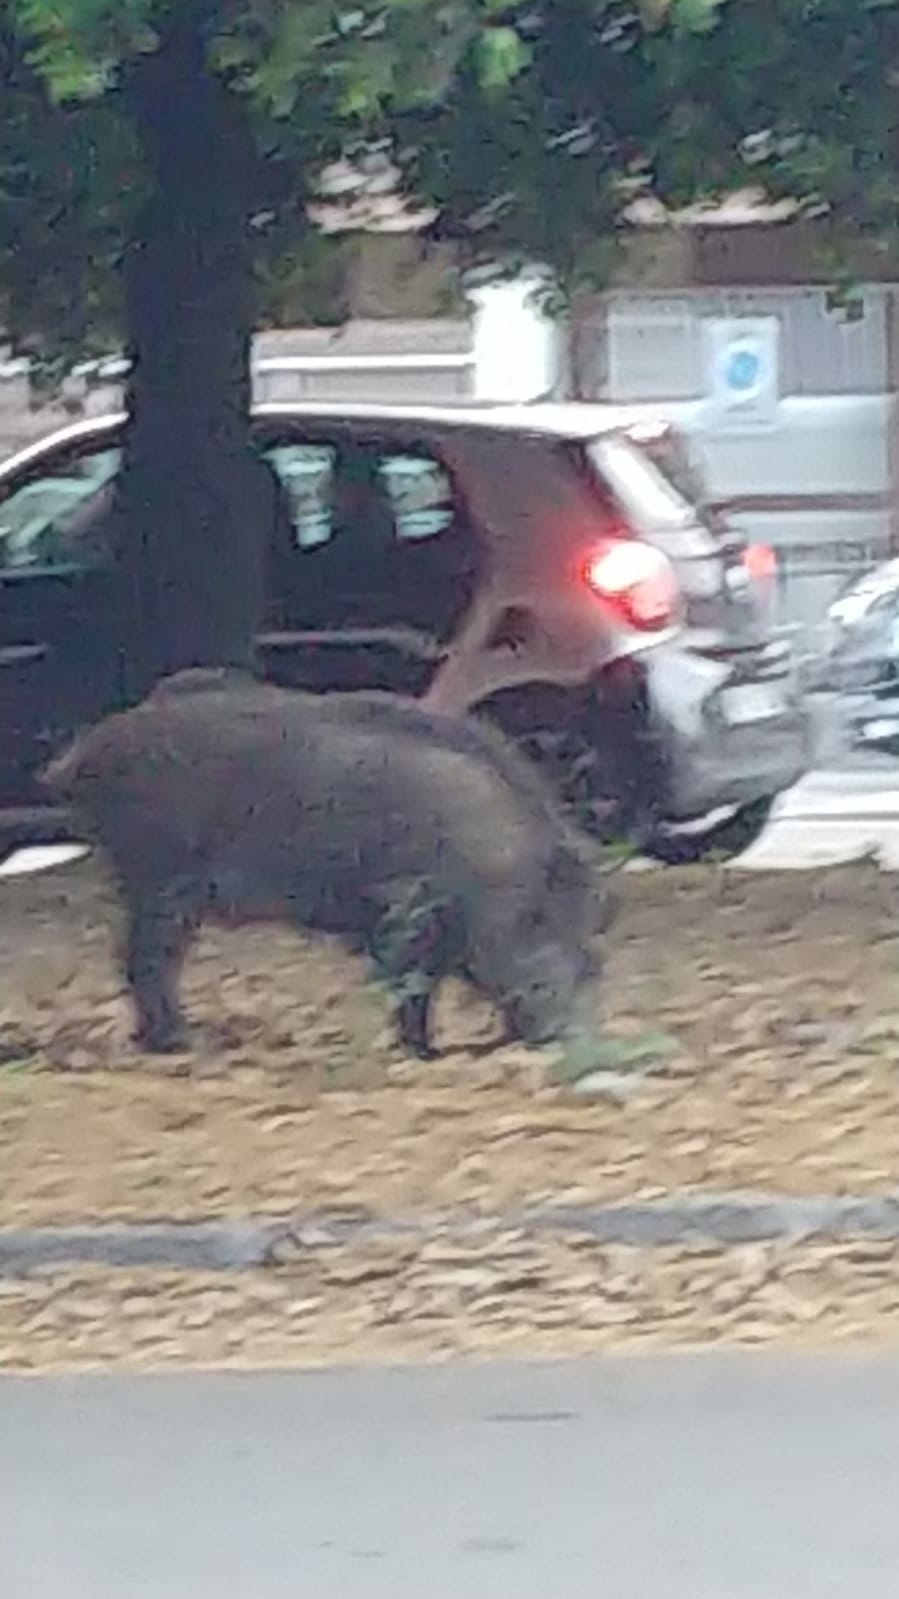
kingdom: Animalia
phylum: Chordata
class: Mammalia
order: Artiodactyla
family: Suidae
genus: Sus
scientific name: Sus scrofa
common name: Wild boar
